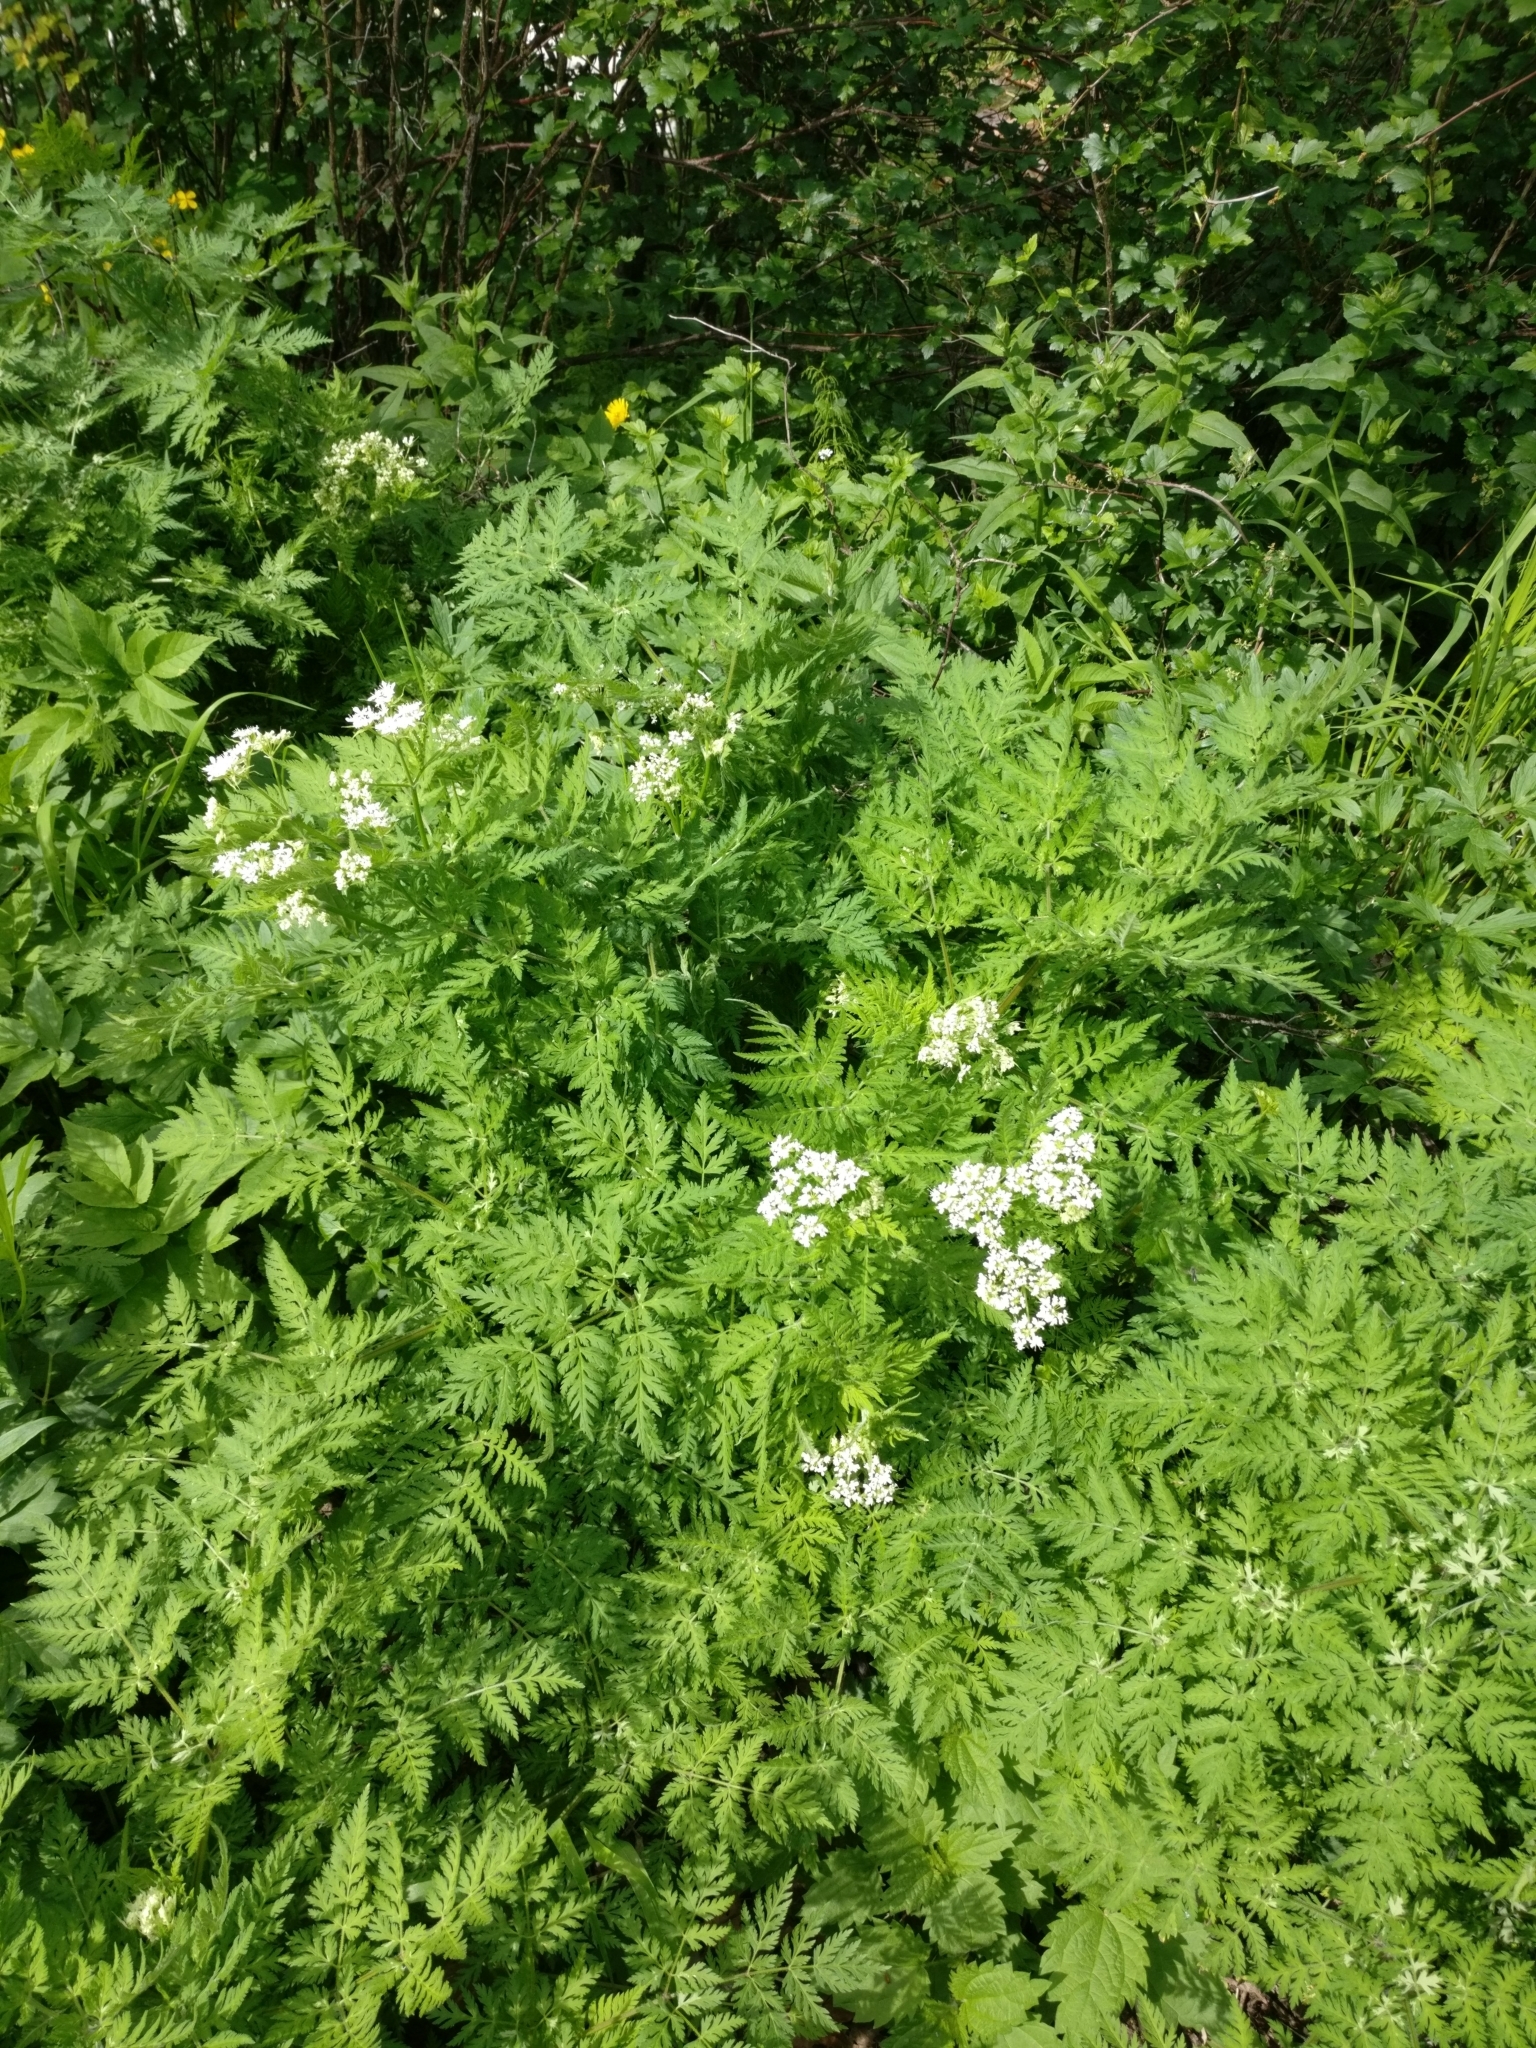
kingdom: Plantae
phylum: Tracheophyta
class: Magnoliopsida
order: Apiales
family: Apiaceae
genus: Myrrhis
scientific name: Myrrhis odorata
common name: Sweet cicely
